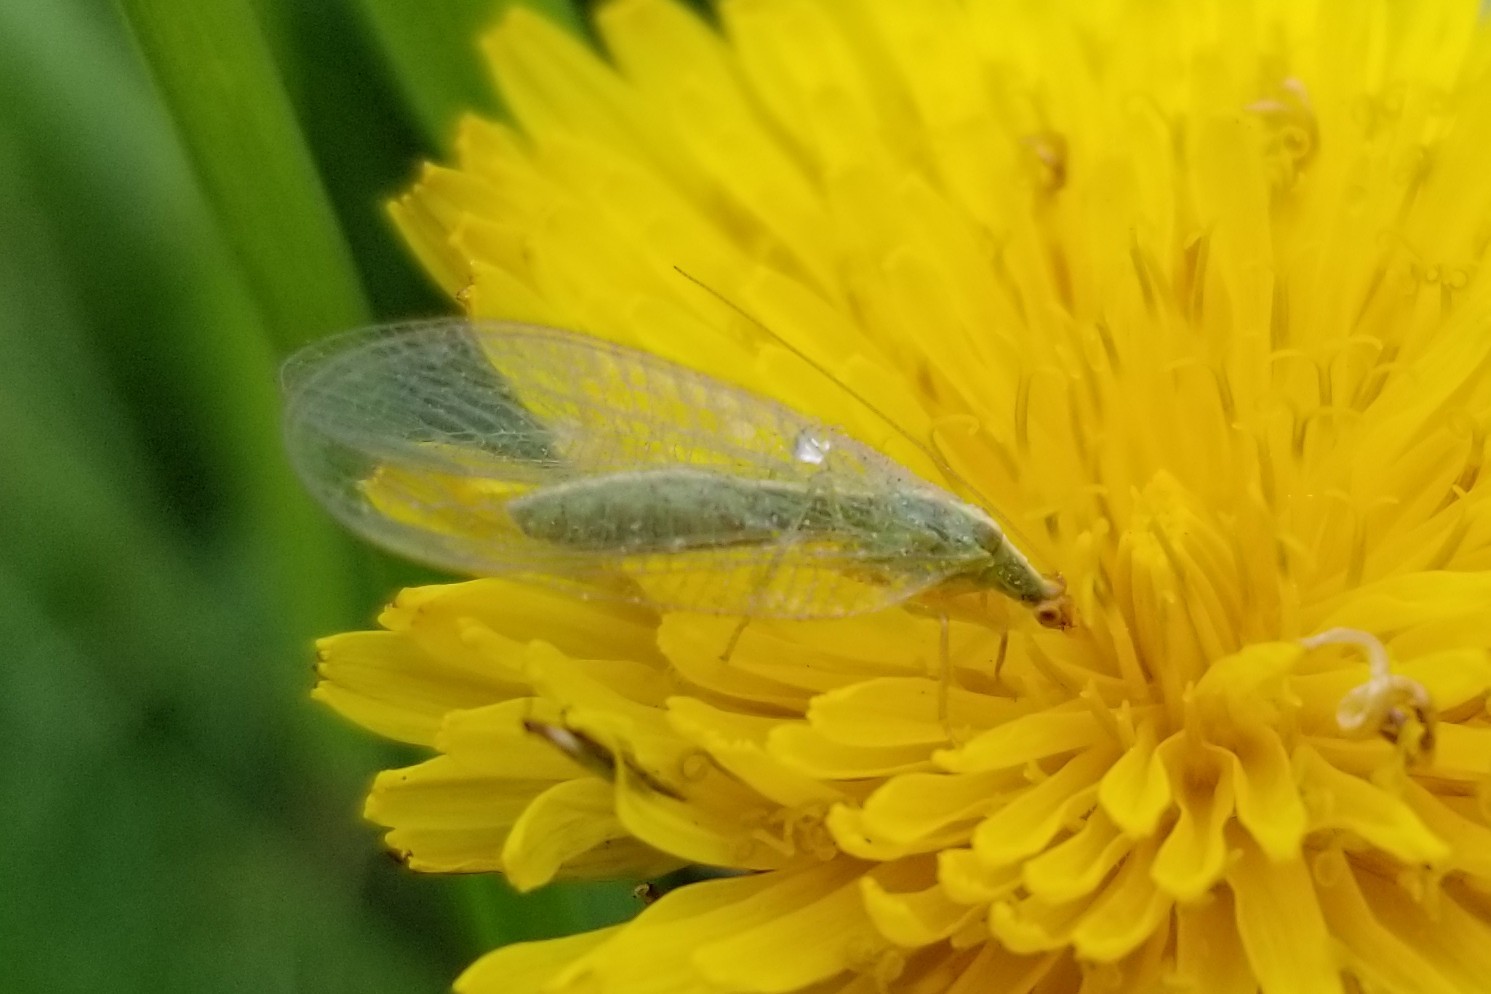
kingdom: Animalia
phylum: Arthropoda
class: Insecta
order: Neuroptera
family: Chrysopidae
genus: Chrysoperla
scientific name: Chrysoperla
